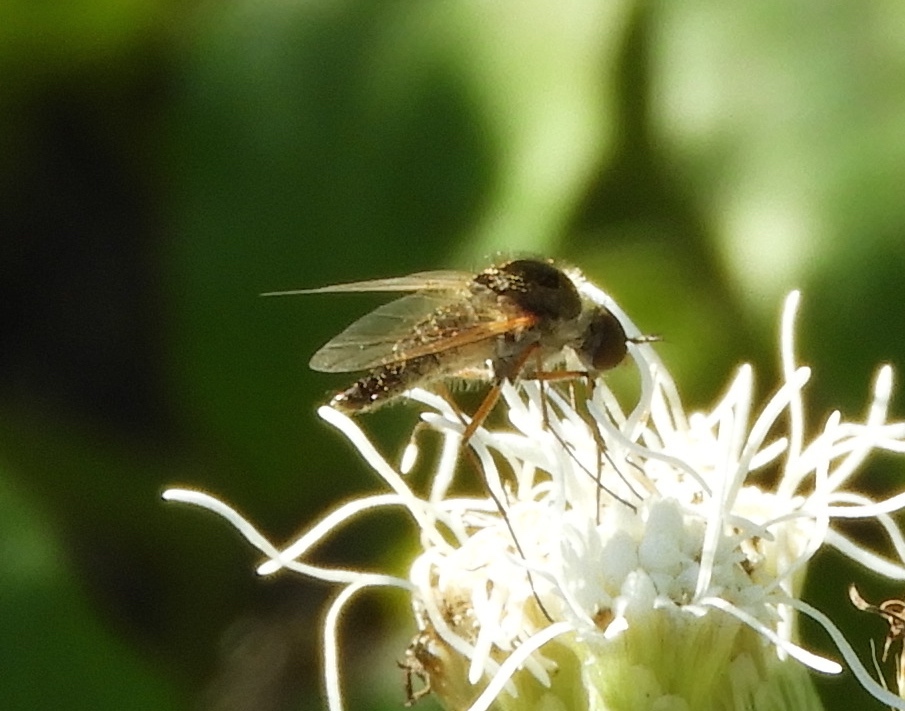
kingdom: Animalia
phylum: Arthropoda
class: Insecta
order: Diptera
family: Bombyliidae
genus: Geron
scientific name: Geron
